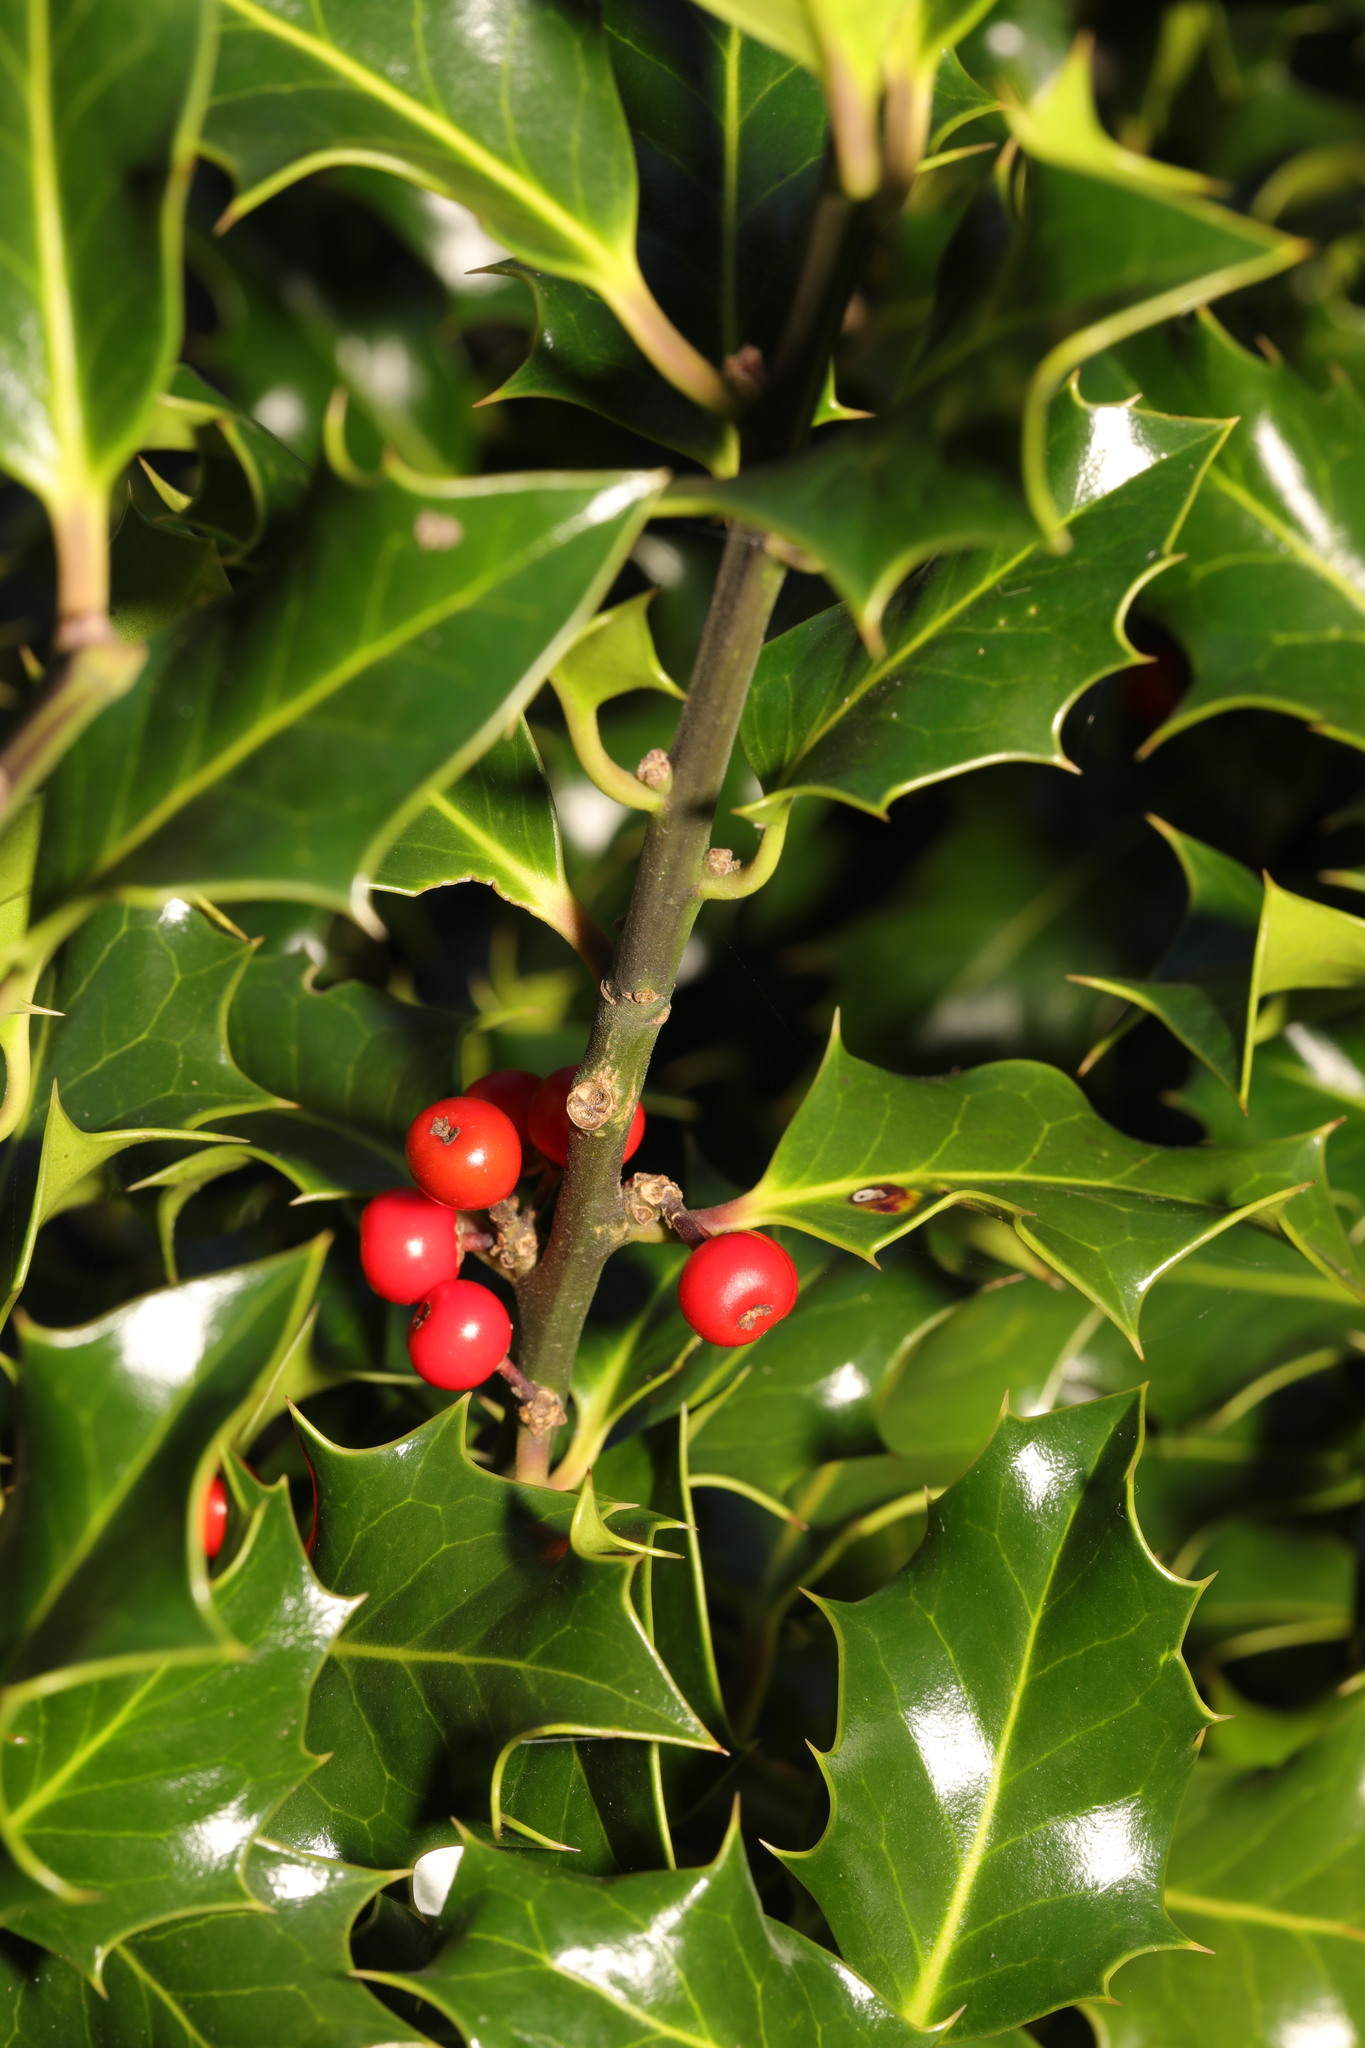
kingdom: Plantae
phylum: Tracheophyta
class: Magnoliopsida
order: Aquifoliales
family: Aquifoliaceae
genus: Ilex
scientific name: Ilex aquifolium
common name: English holly
